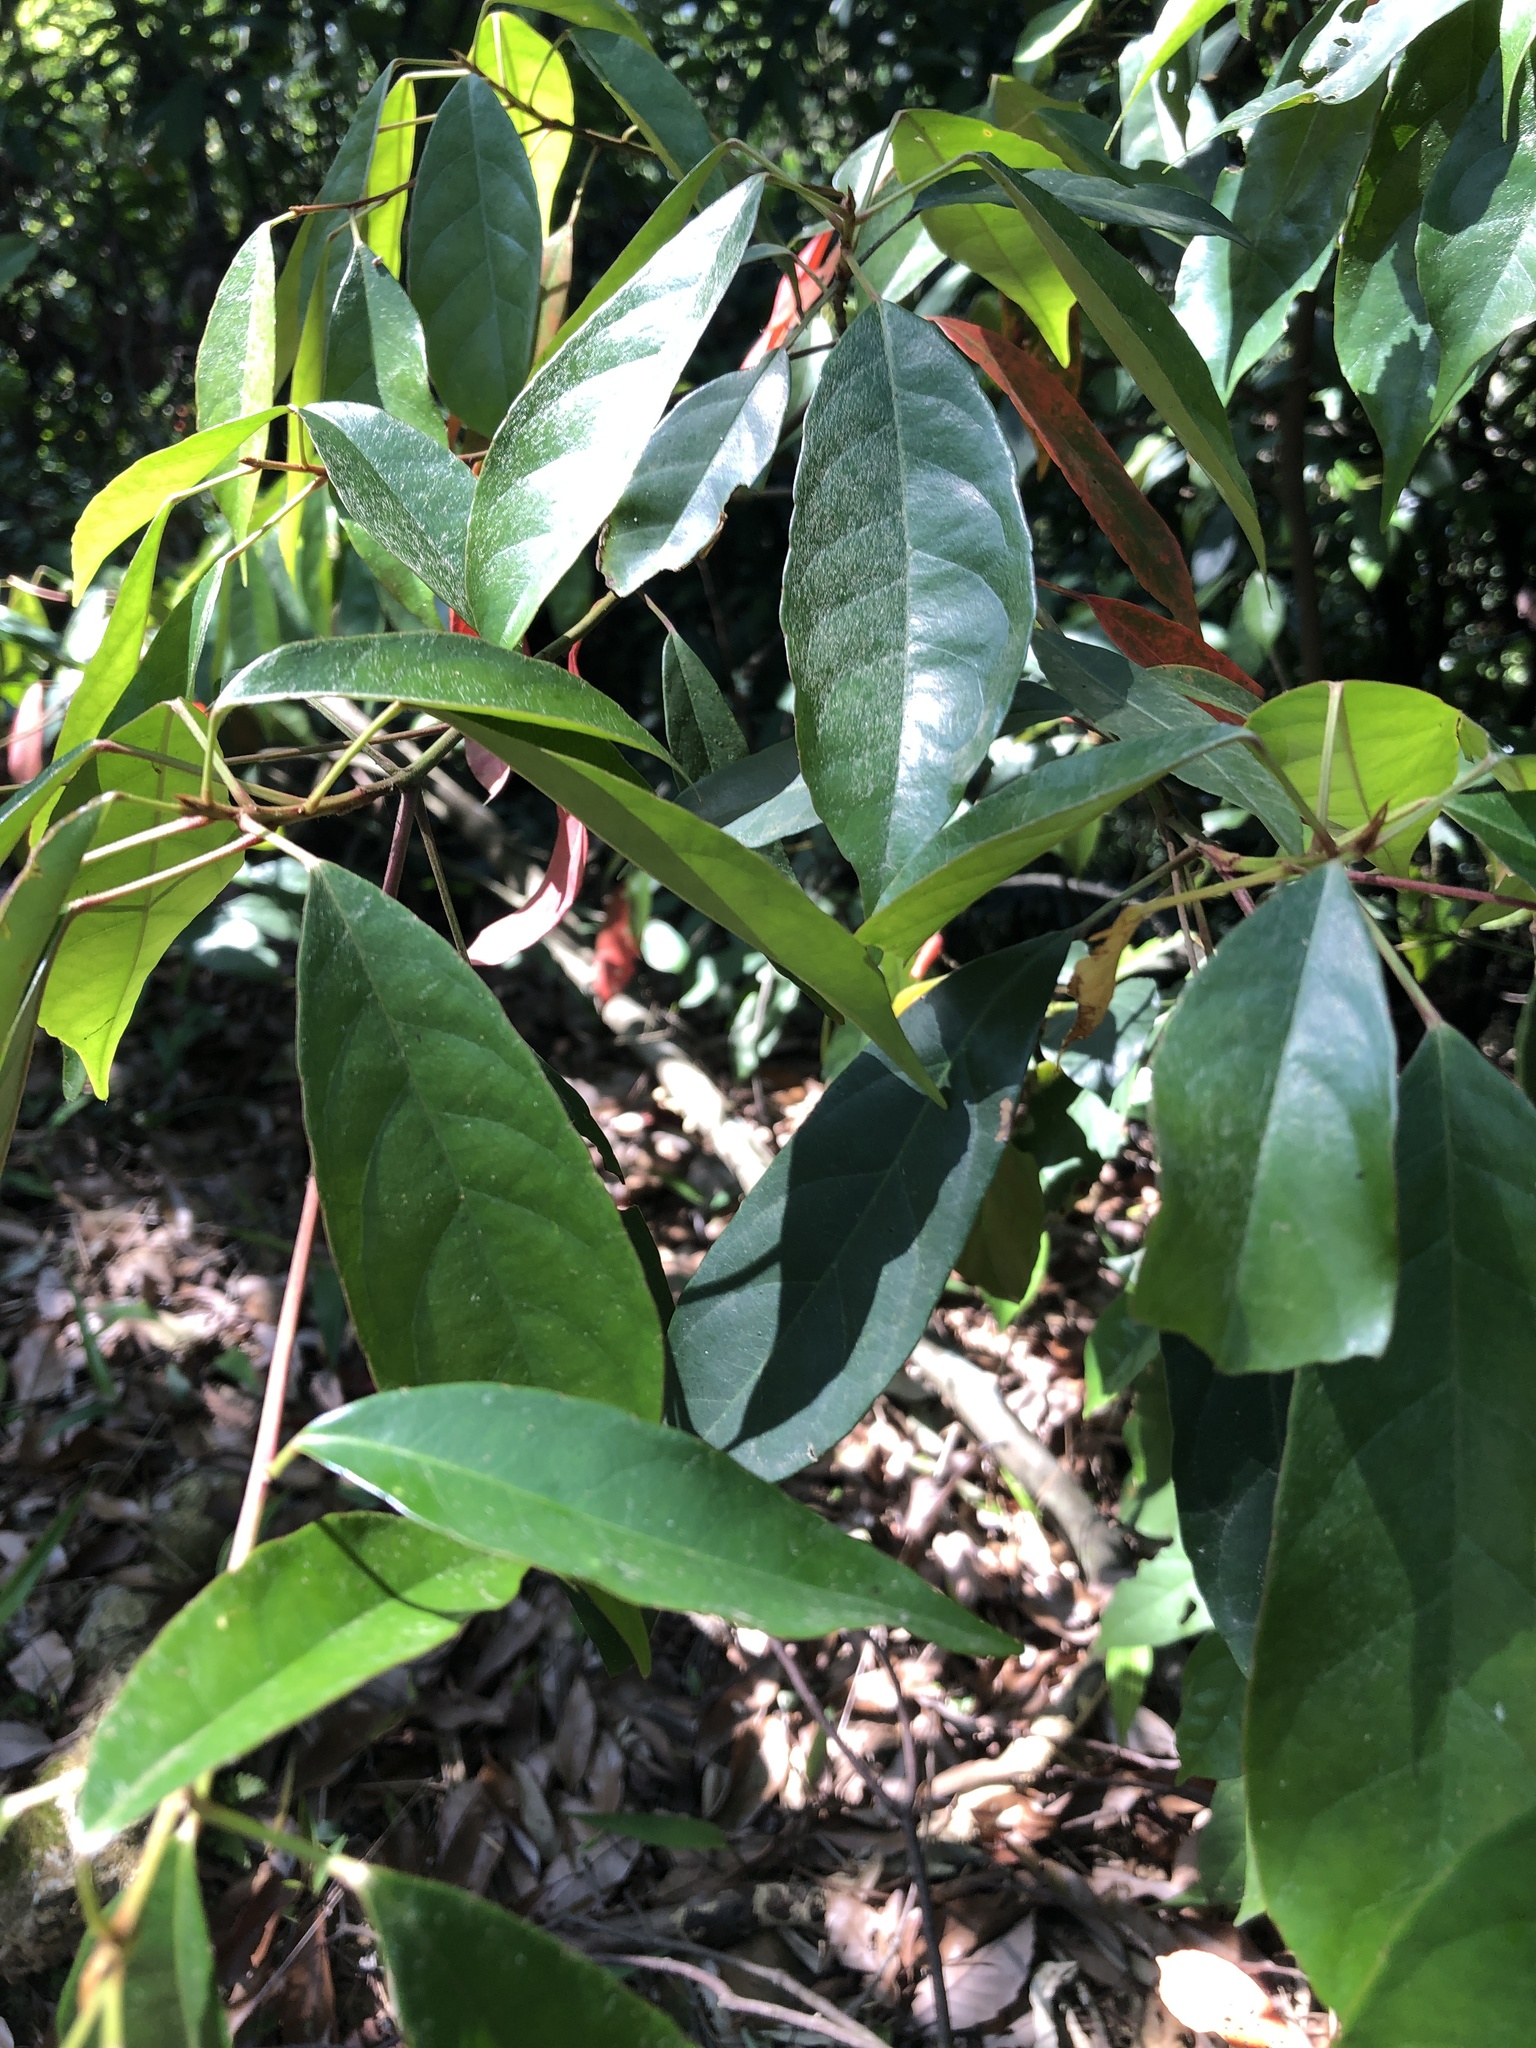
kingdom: Plantae
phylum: Tracheophyta
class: Magnoliopsida
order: Oxalidales
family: Elaeocarpaceae
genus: Elaeocarpus
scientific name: Elaeocarpus japonicus
